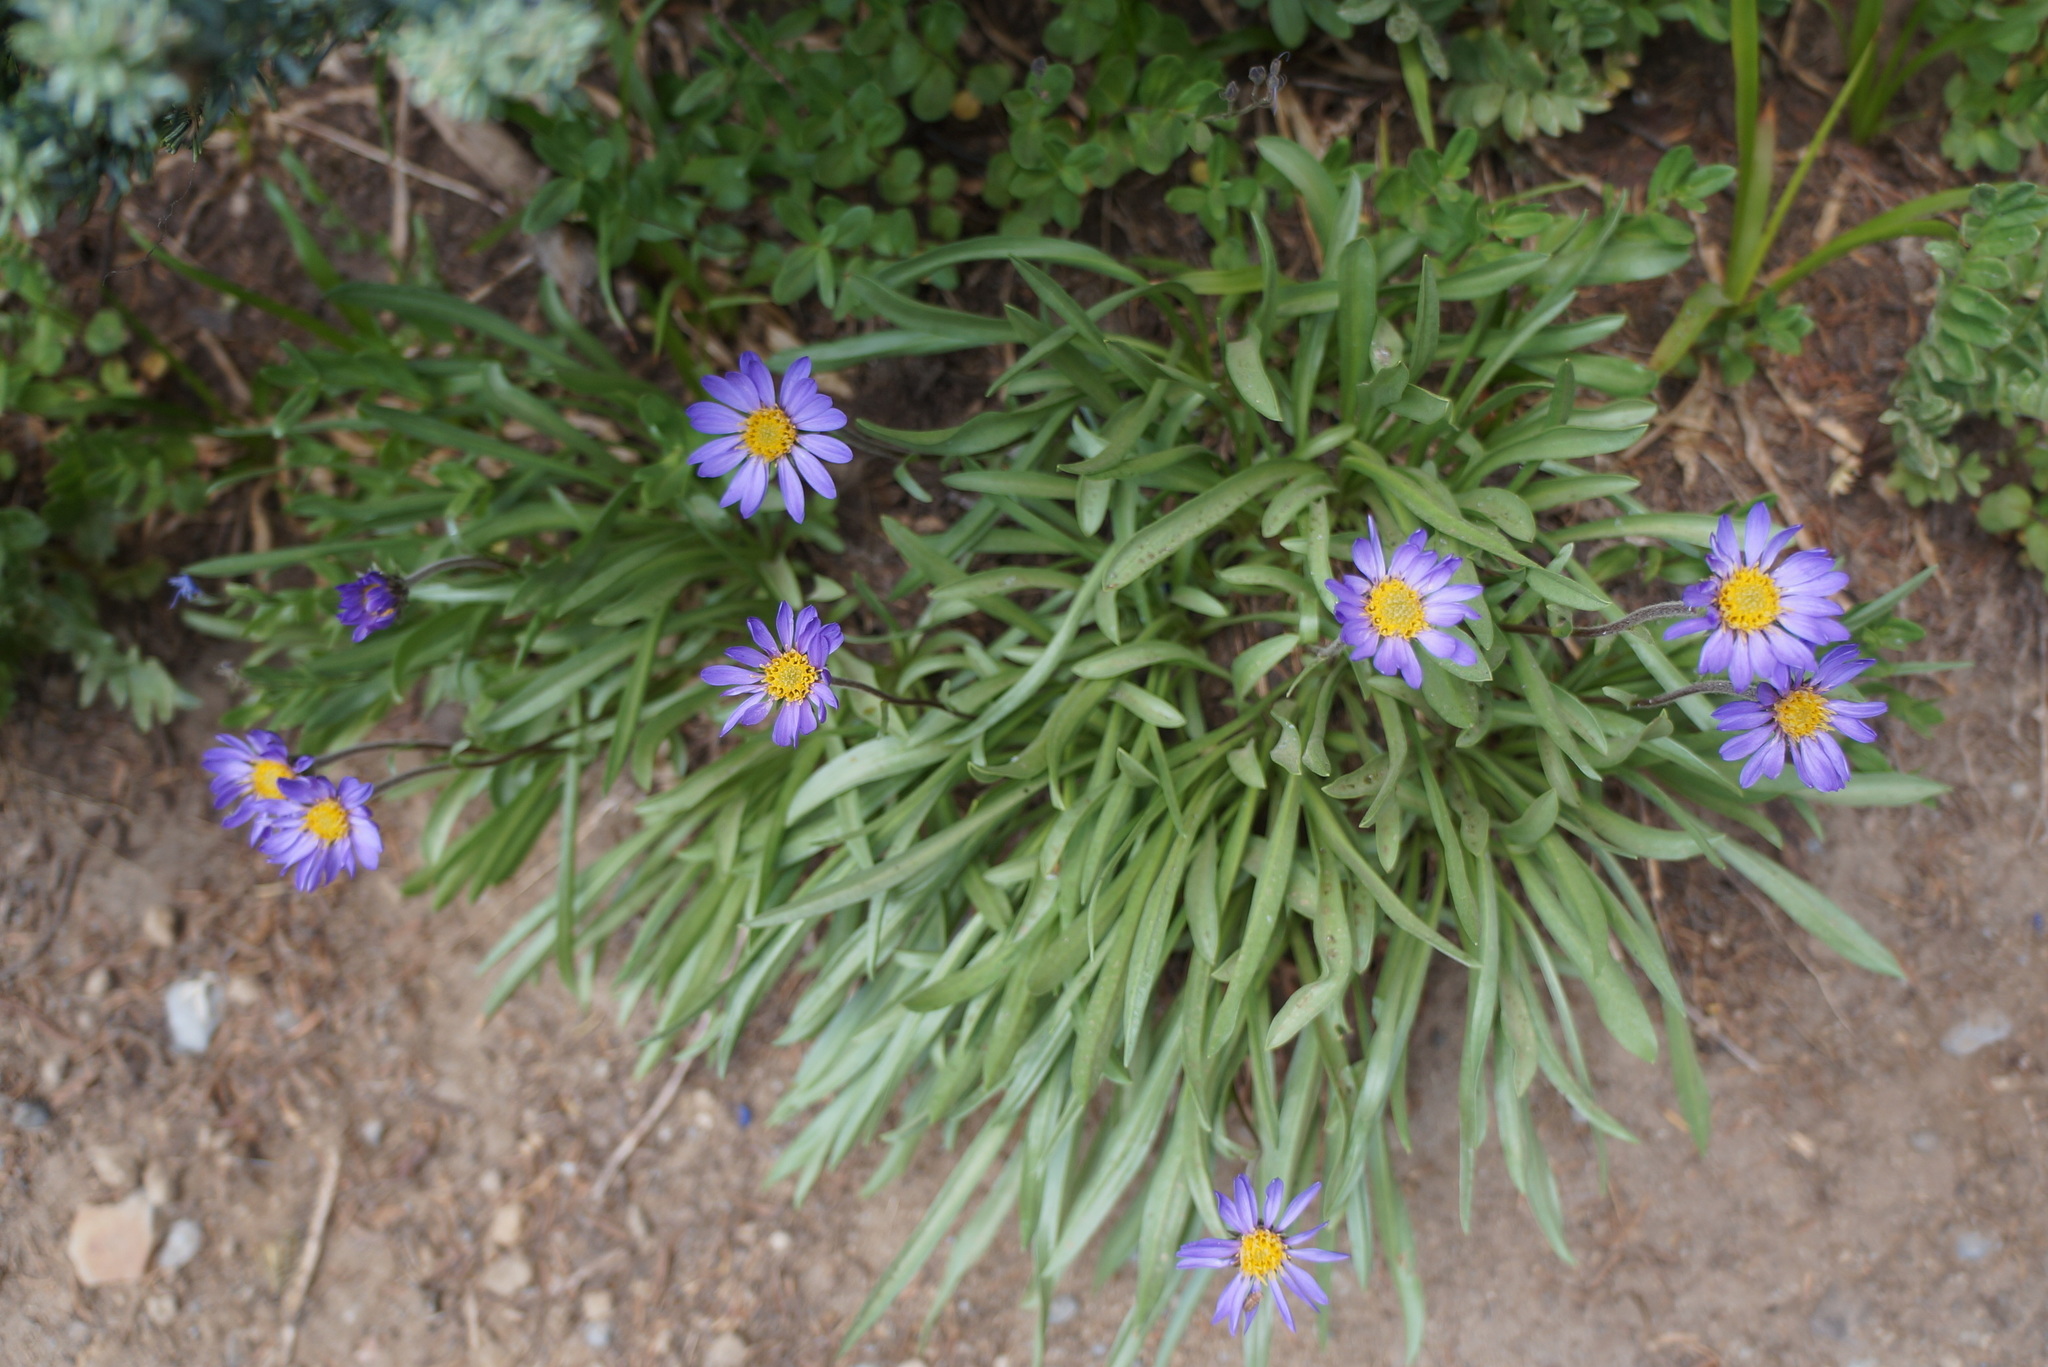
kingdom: Plantae
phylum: Tracheophyta
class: Magnoliopsida
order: Asterales
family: Asteraceae
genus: Oreostemma
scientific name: Oreostemma alpigenum
